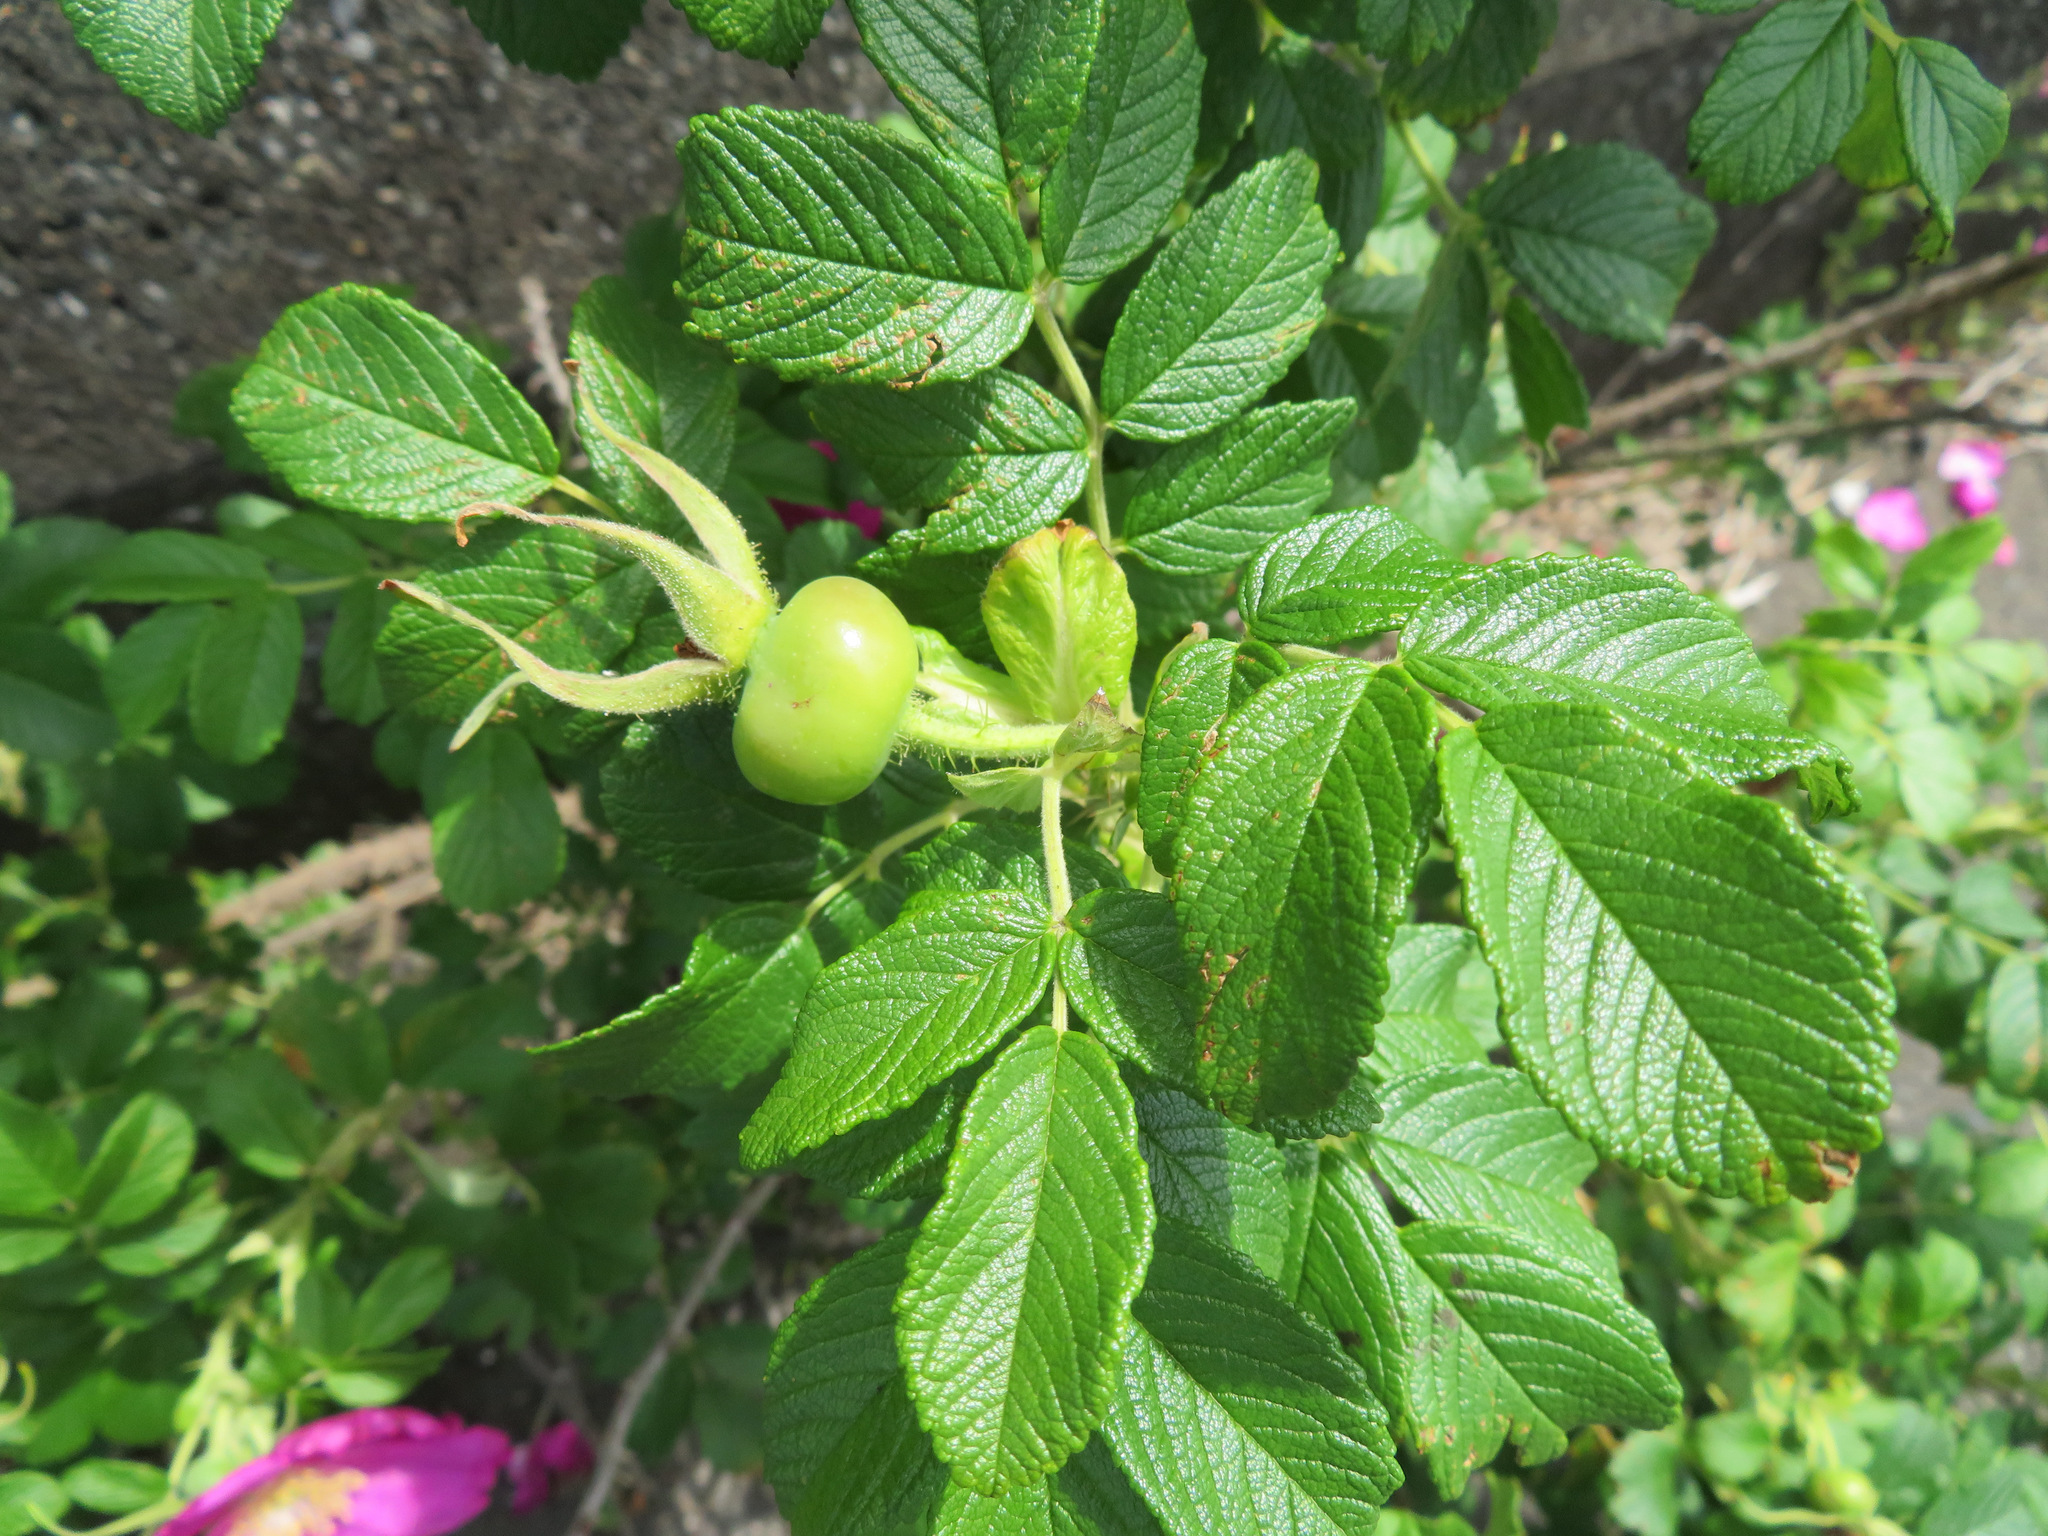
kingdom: Plantae
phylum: Tracheophyta
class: Magnoliopsida
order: Rosales
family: Rosaceae
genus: Rosa
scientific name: Rosa rugosa
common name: Japanese rose
